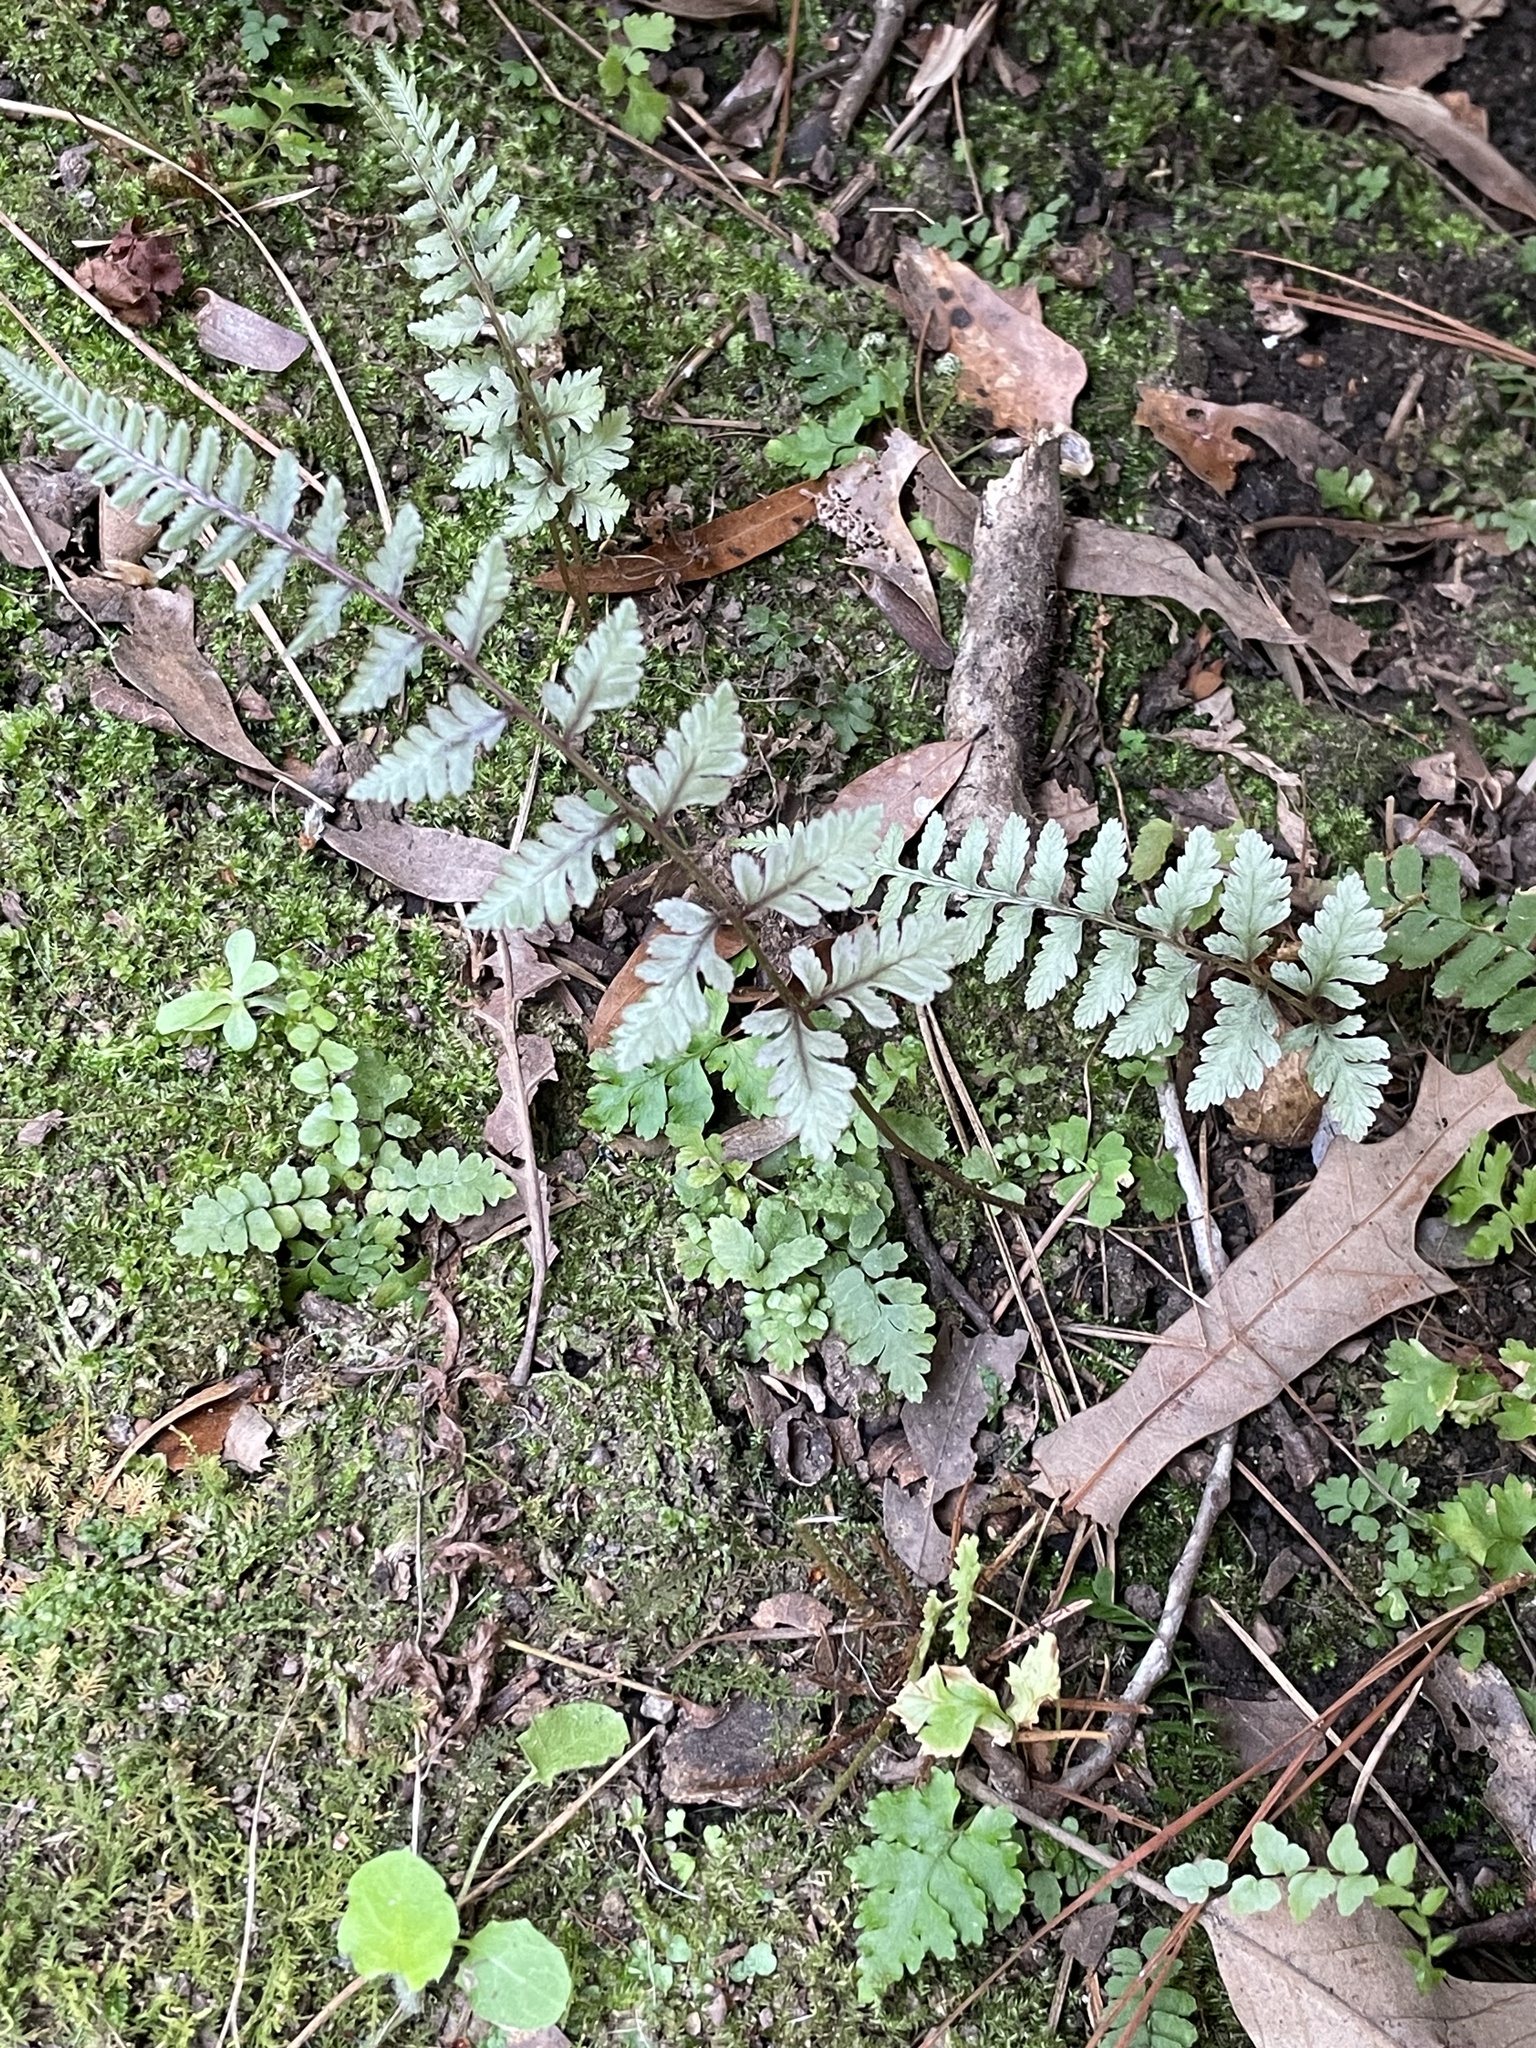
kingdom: Plantae
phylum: Tracheophyta
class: Polypodiopsida
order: Polypodiales
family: Athyriaceae
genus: Anisocampium
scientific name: Anisocampium niponicum
